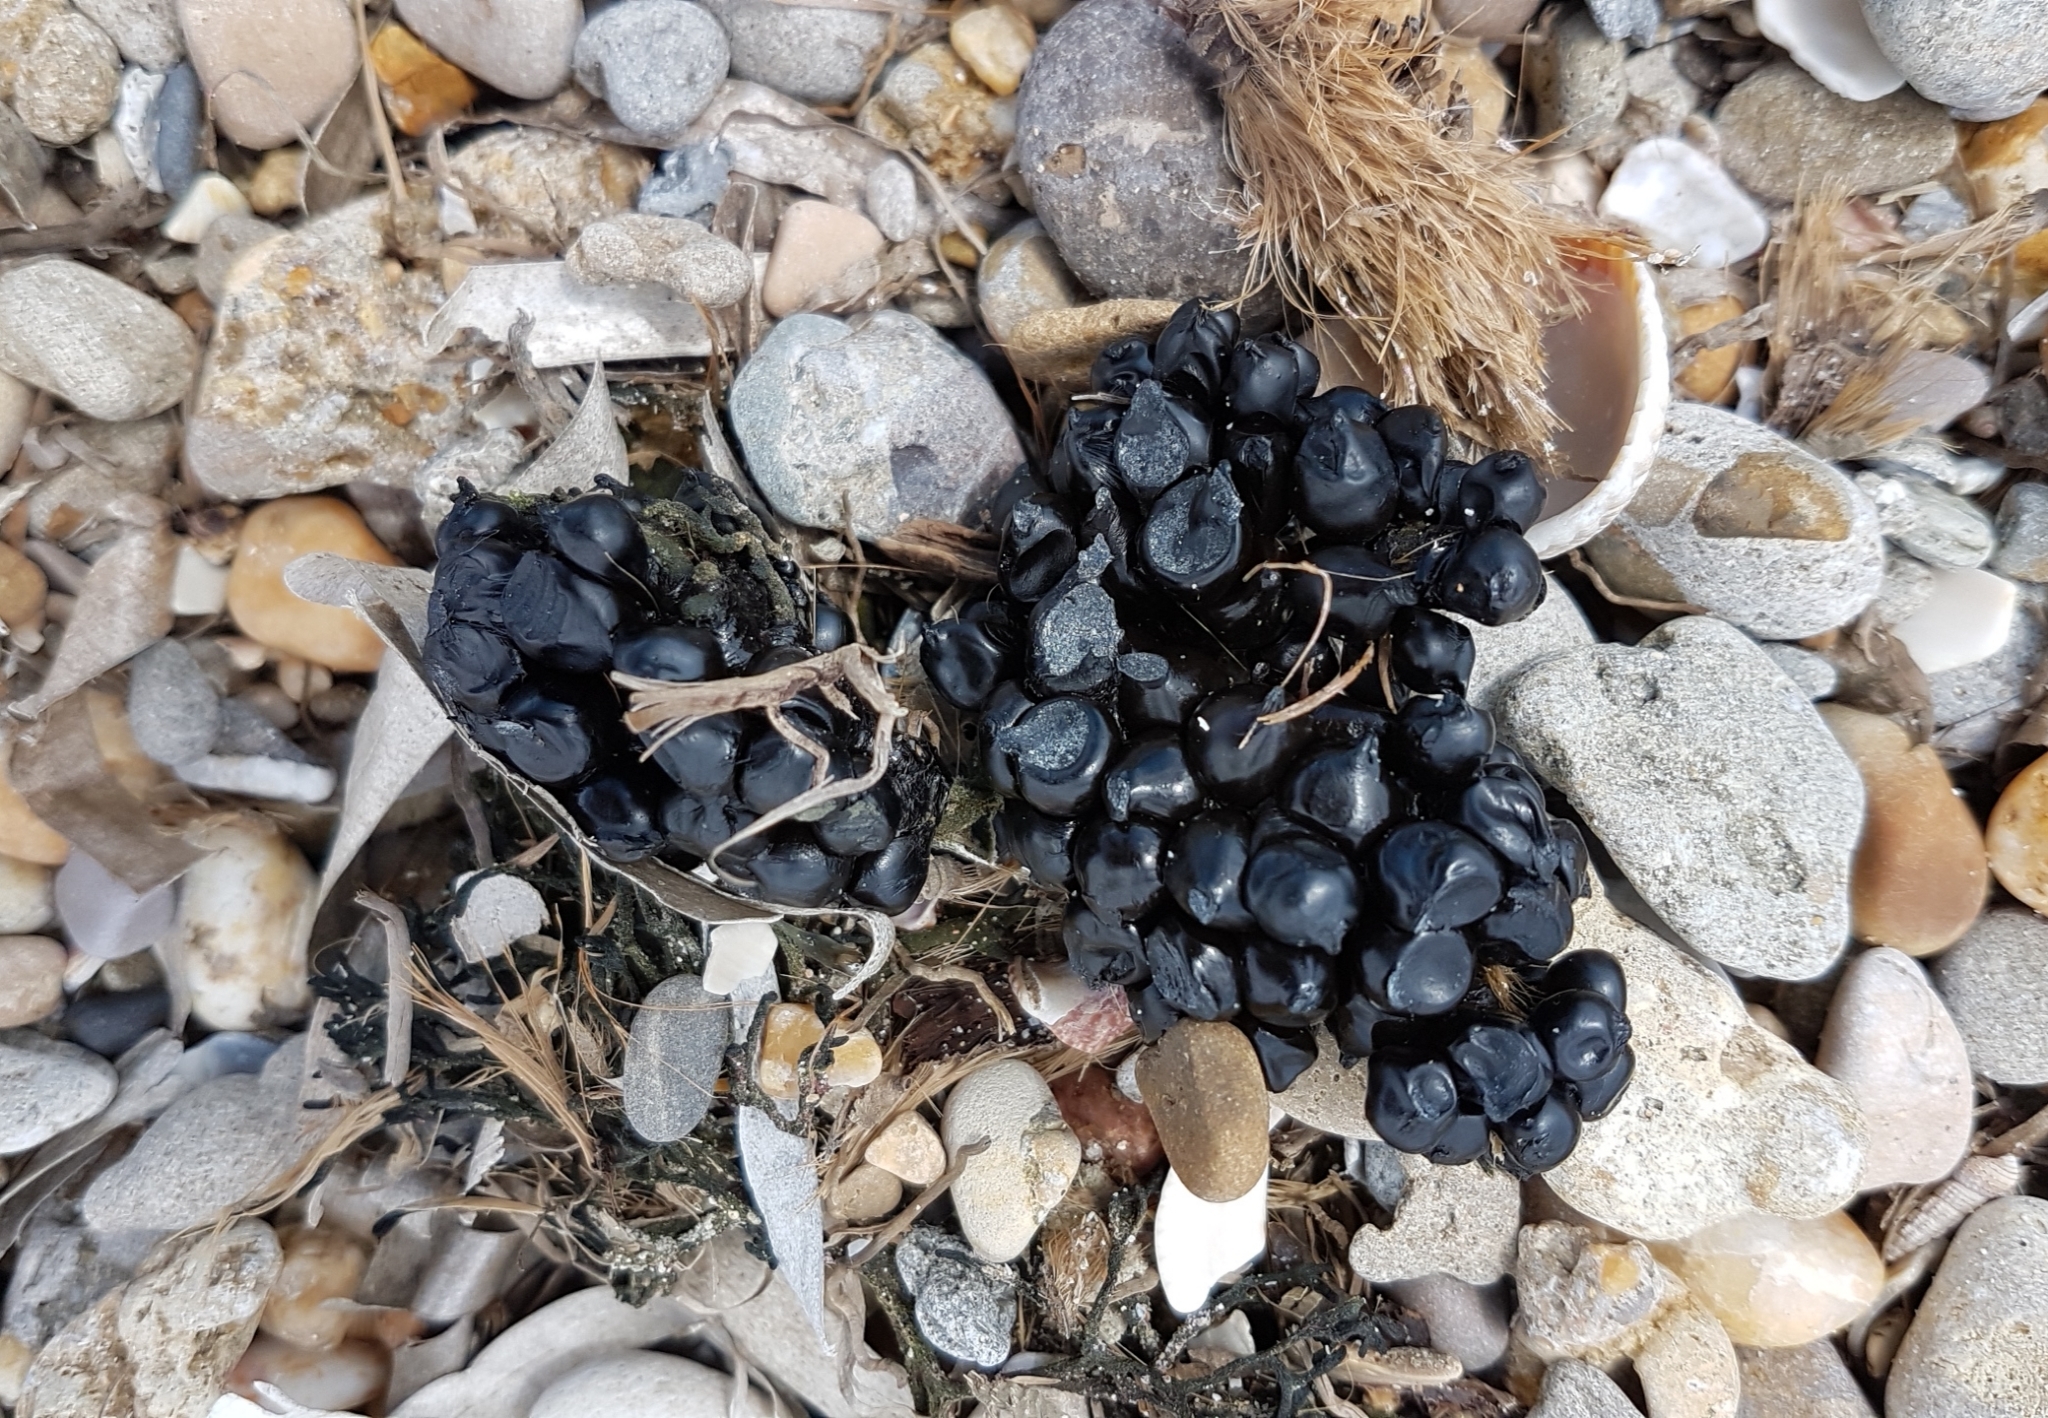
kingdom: Animalia
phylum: Mollusca
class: Cephalopoda
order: Sepiida
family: Sepiidae
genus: Sepia
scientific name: Sepia officinalis
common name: Common cuttlefish
